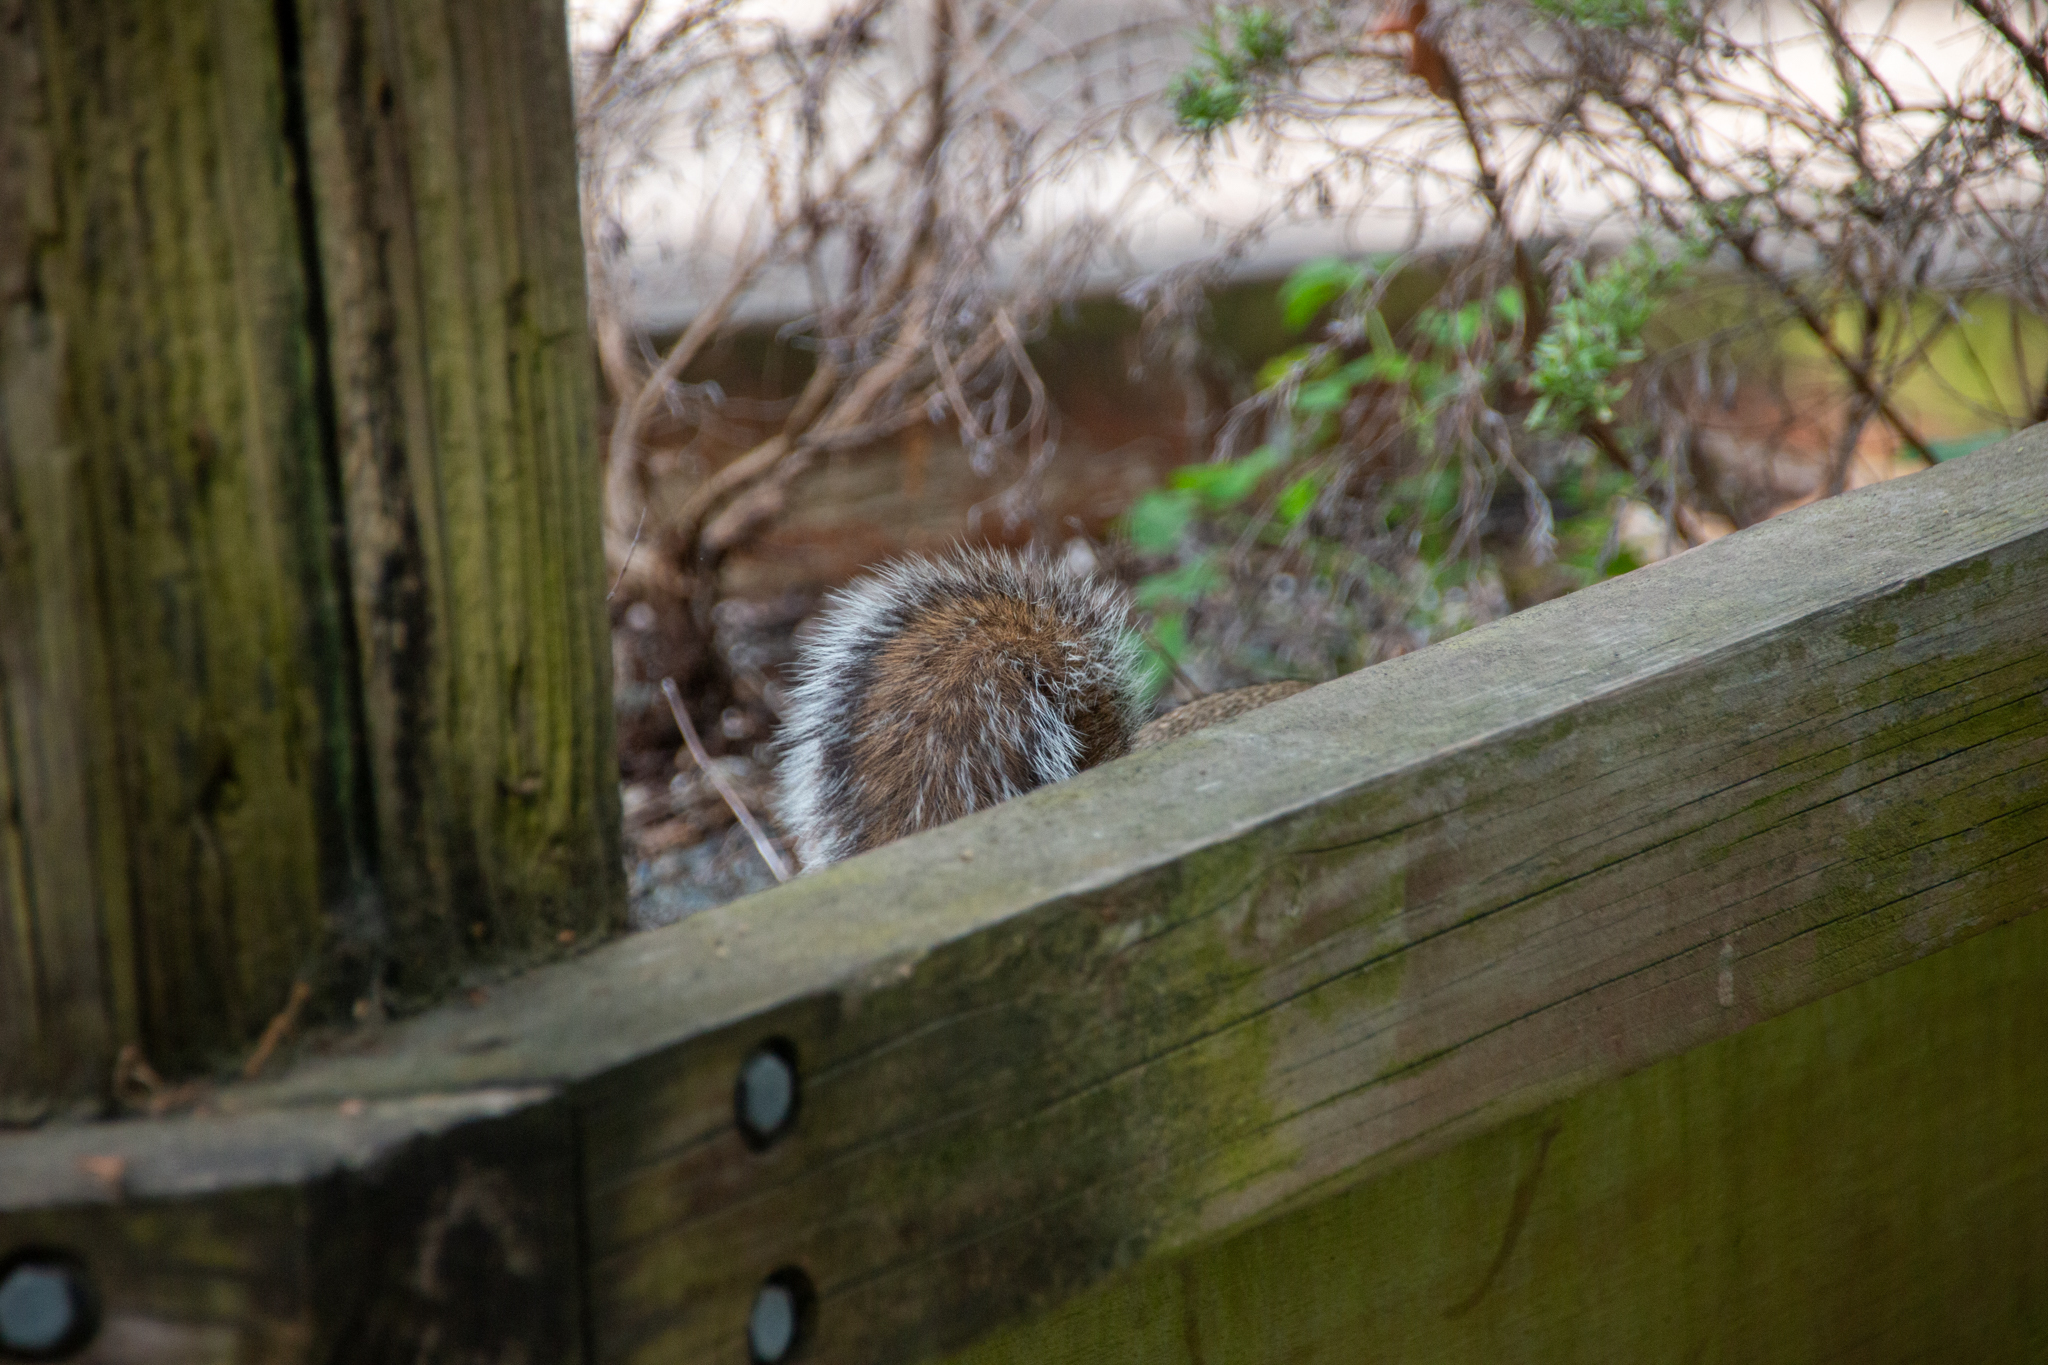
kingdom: Animalia
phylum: Chordata
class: Mammalia
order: Rodentia
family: Sciuridae
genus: Sciurus
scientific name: Sciurus carolinensis
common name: Eastern gray squirrel
